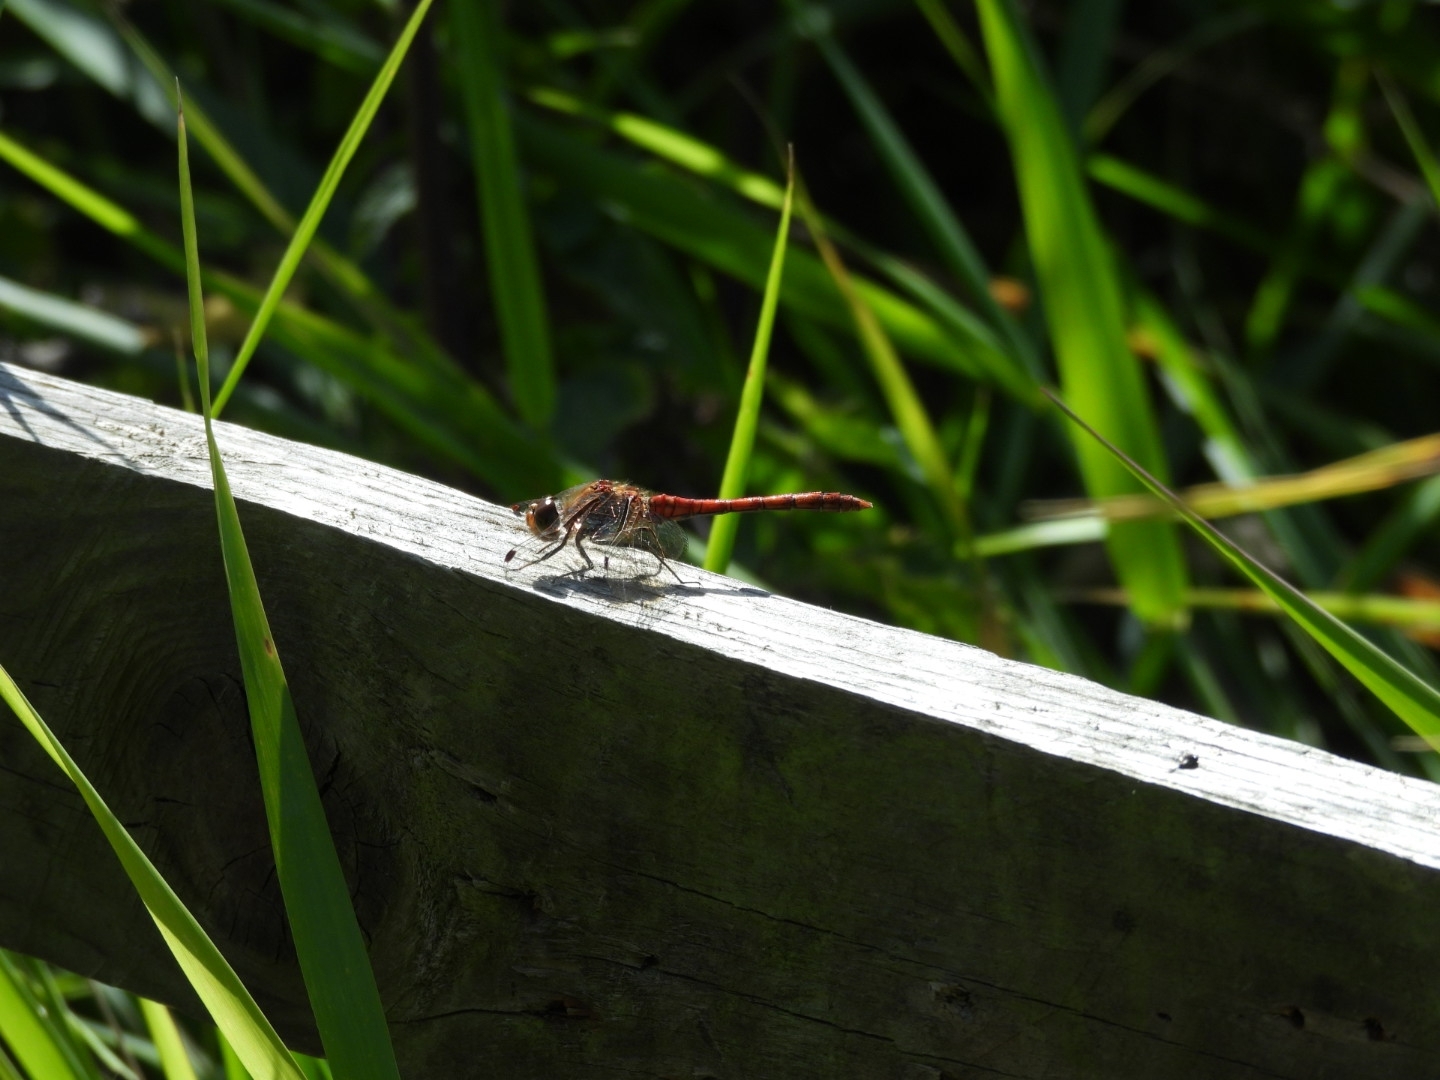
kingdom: Animalia
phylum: Arthropoda
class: Insecta
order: Odonata
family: Libellulidae
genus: Sympetrum
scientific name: Sympetrum striolatum
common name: Common darter
